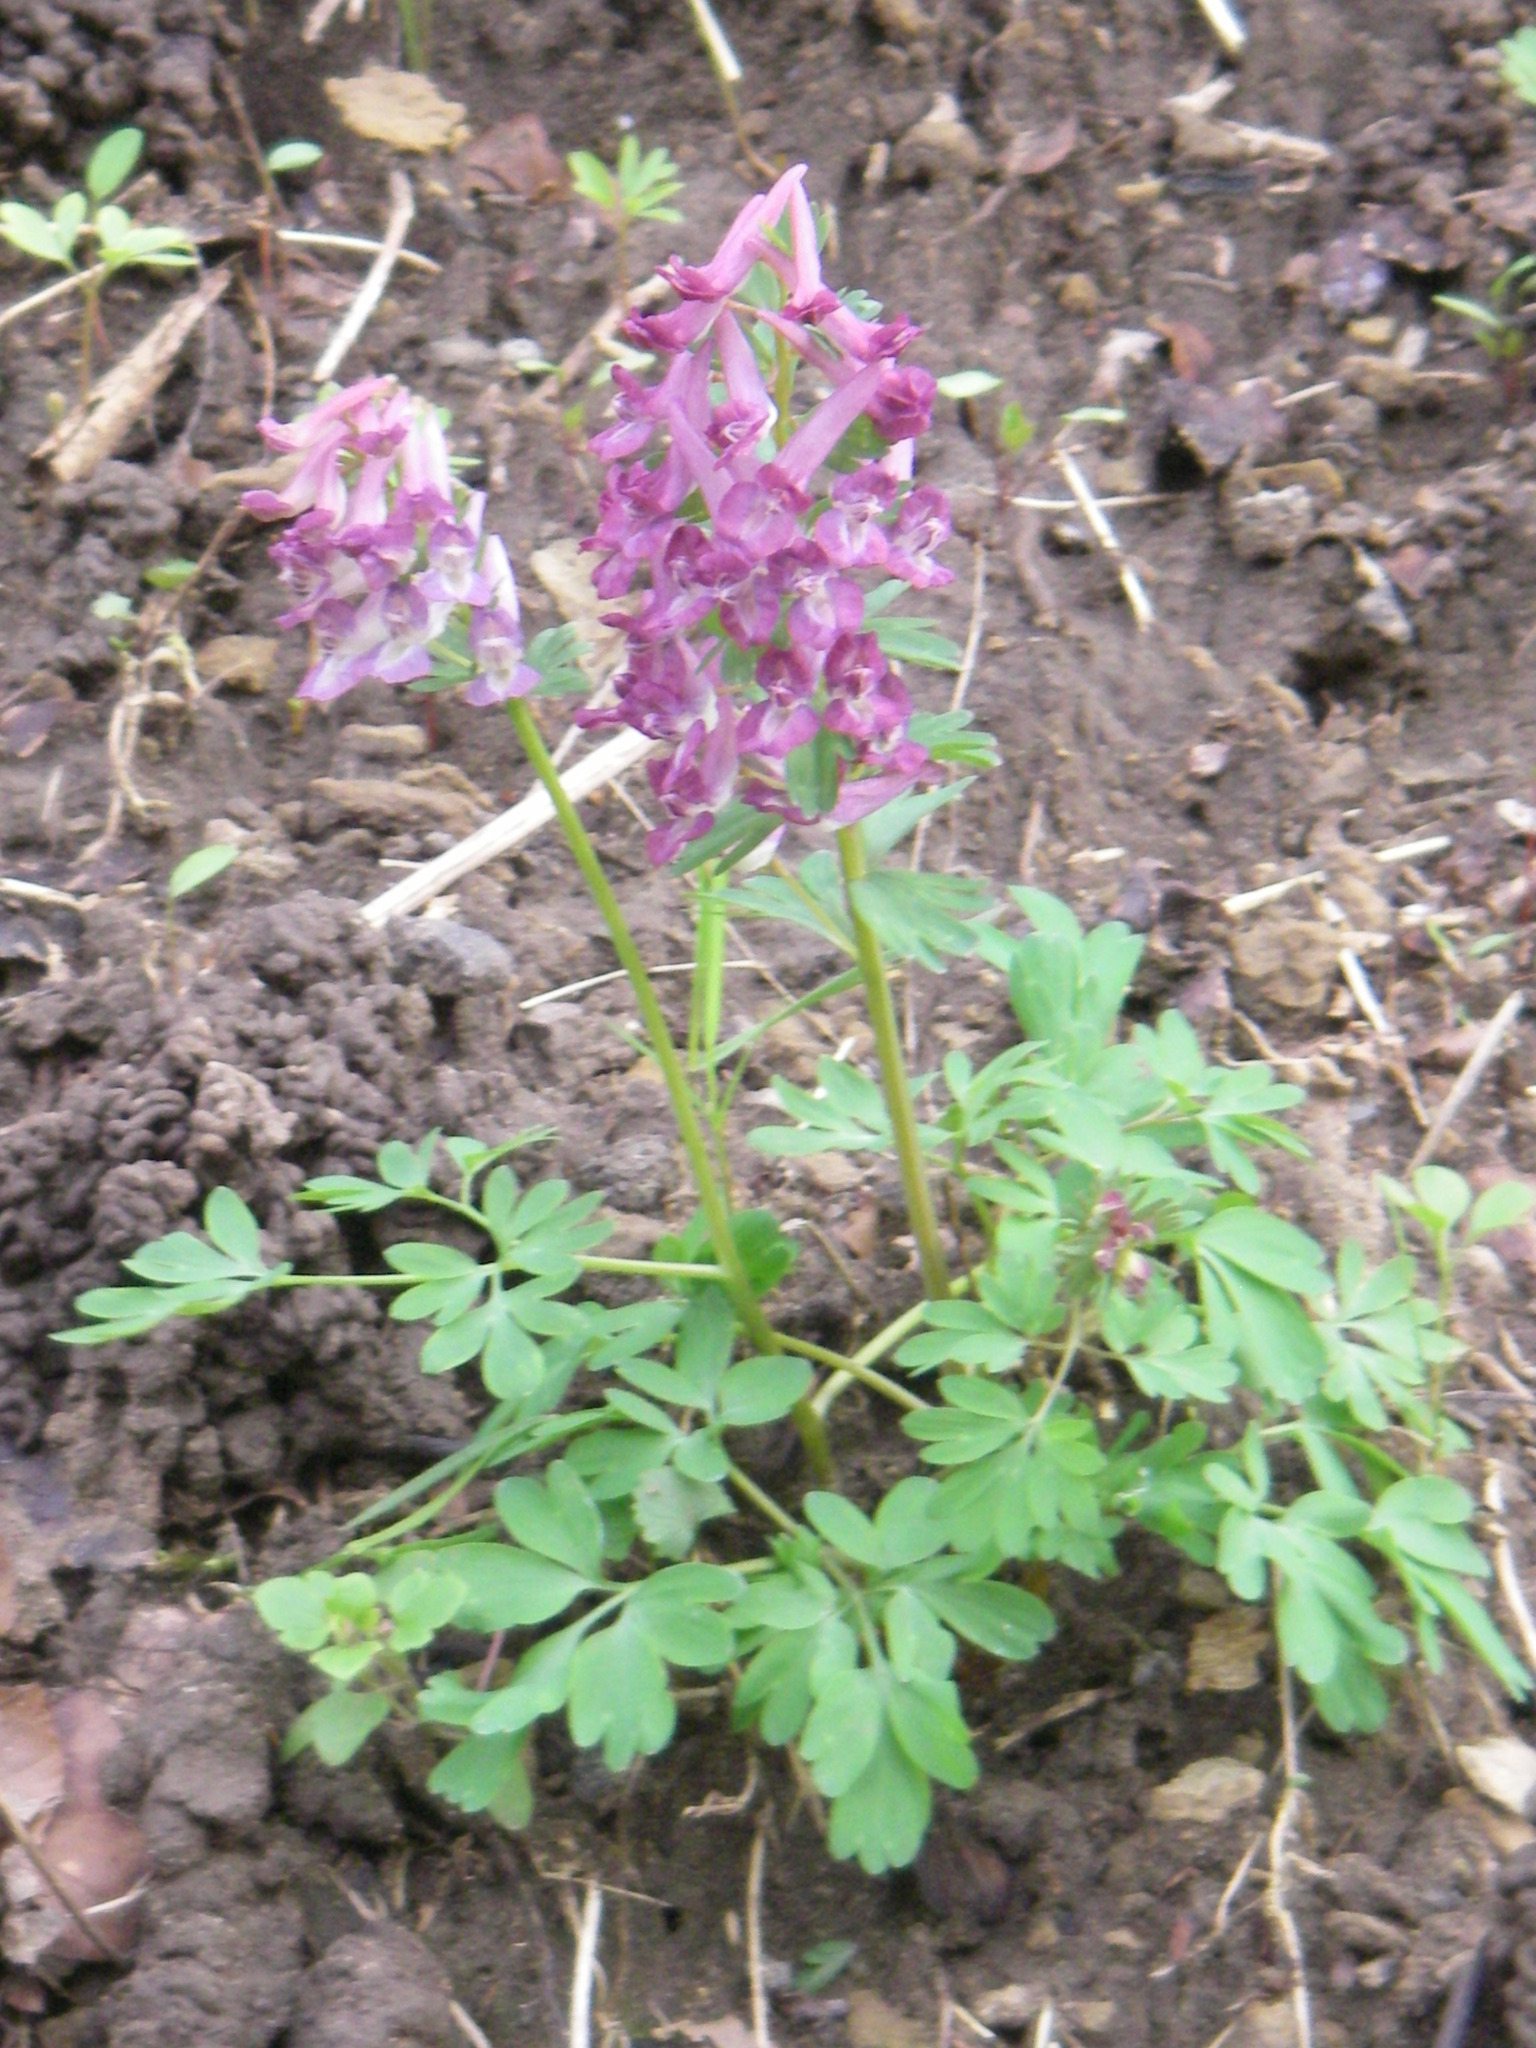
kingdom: Plantae
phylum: Tracheophyta
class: Magnoliopsida
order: Ranunculales
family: Papaveraceae
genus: Corydalis
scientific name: Corydalis solida
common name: Bird-in-a-bush
